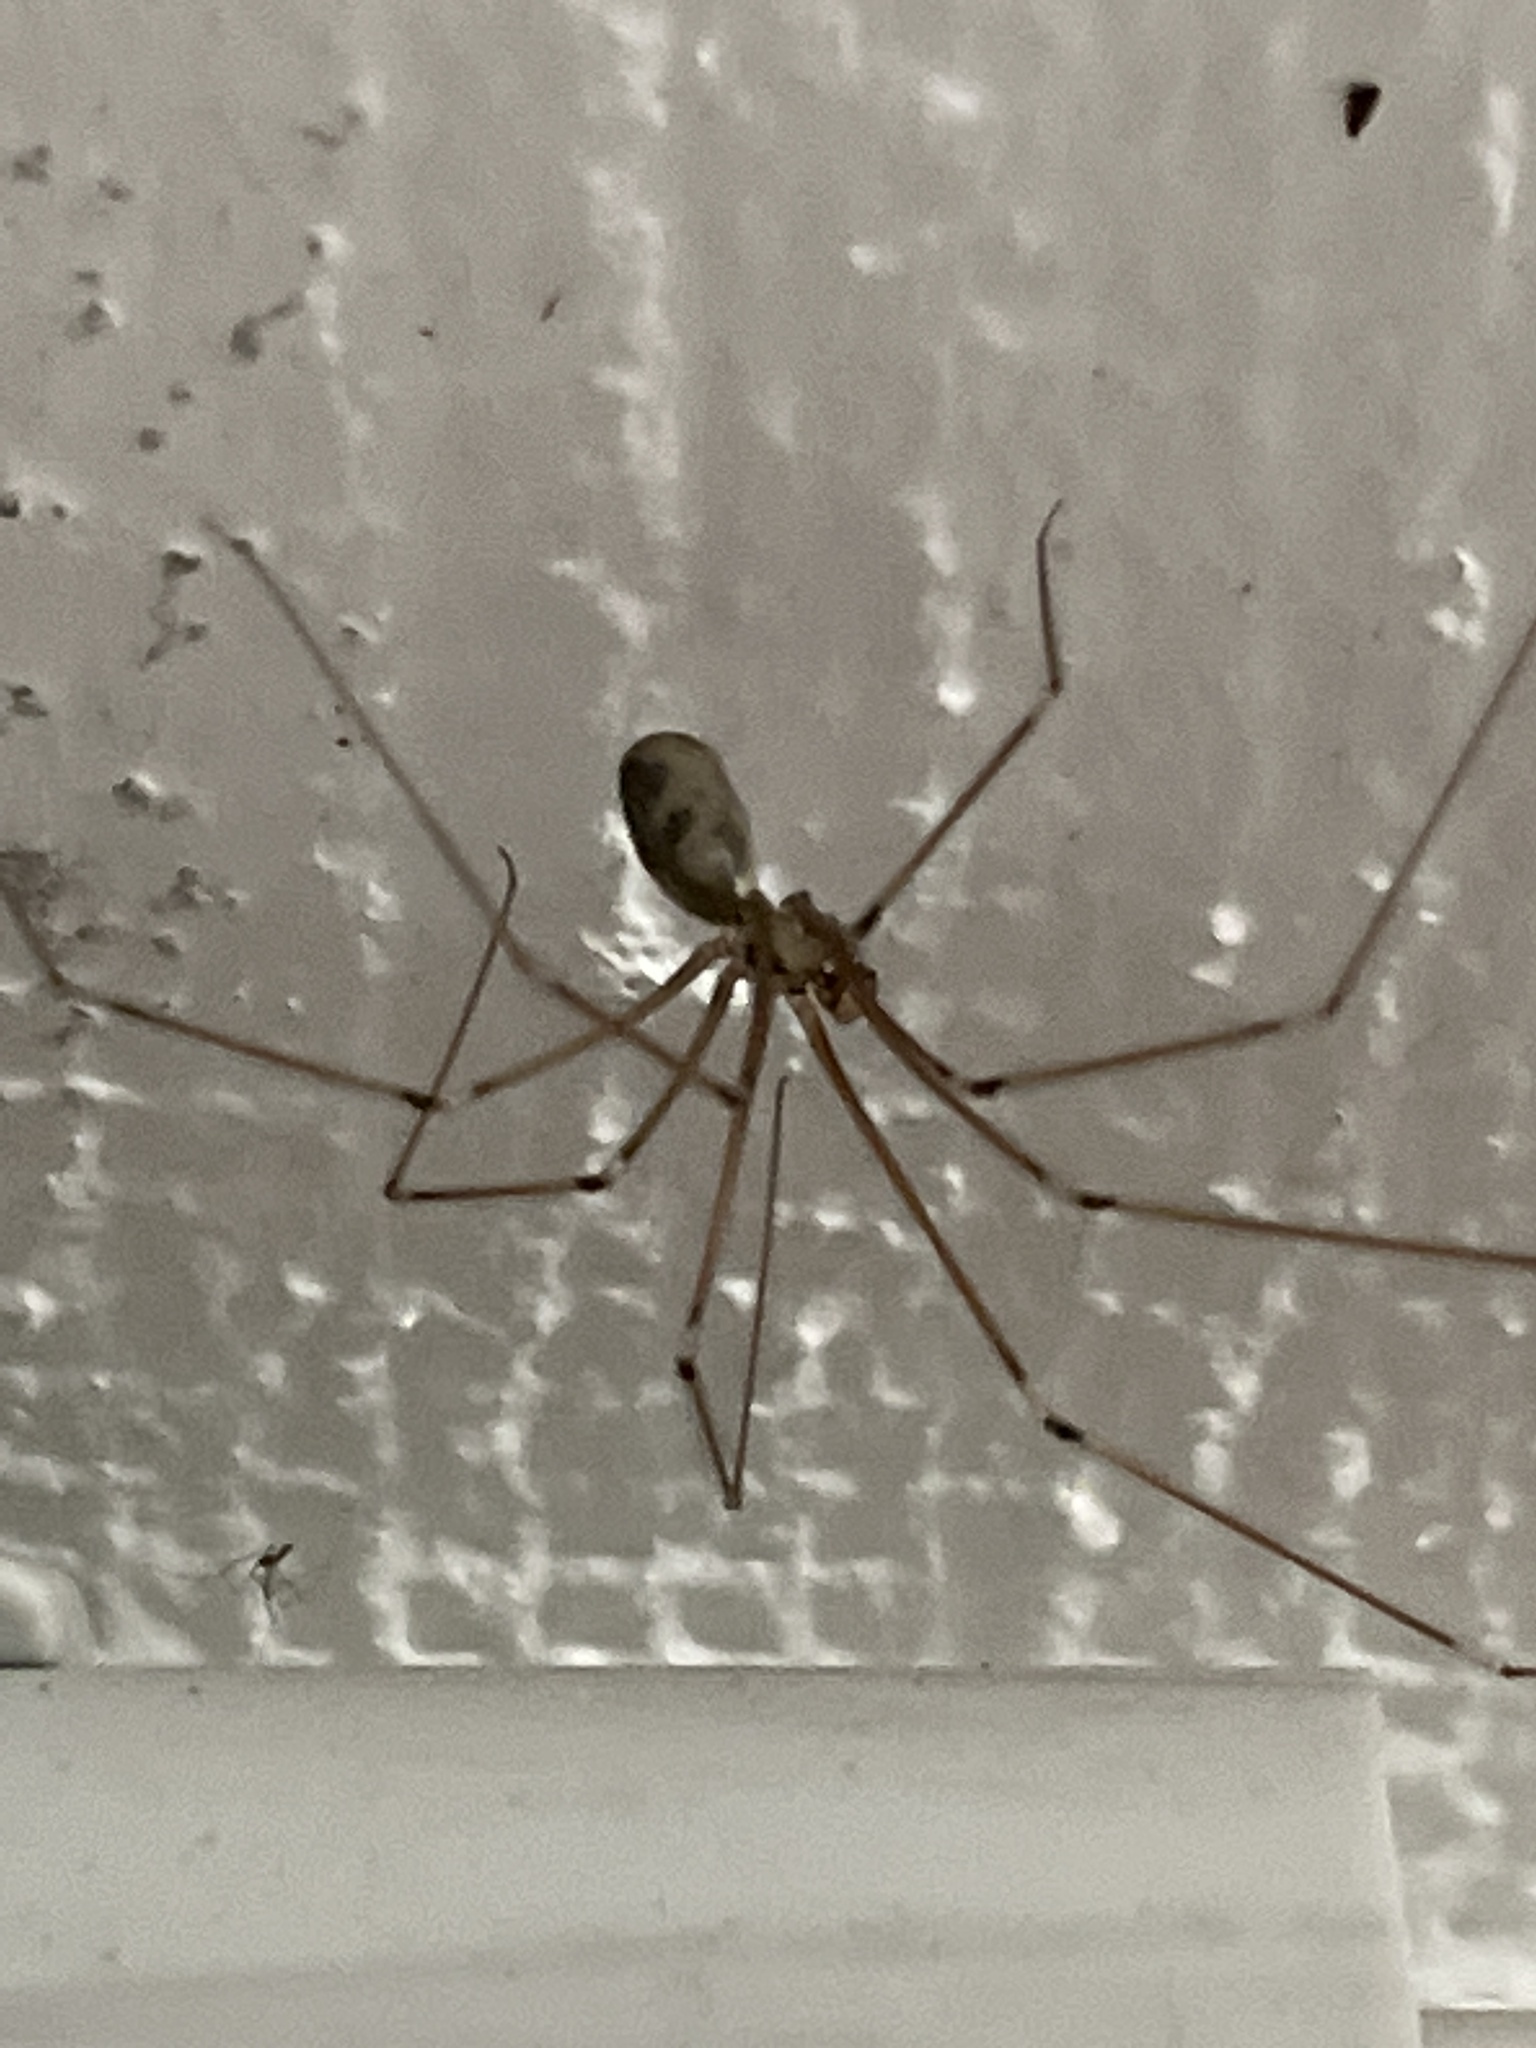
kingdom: Animalia
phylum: Arthropoda
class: Arachnida
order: Araneae
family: Pholcidae
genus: Pholcus
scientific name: Pholcus phalangioides
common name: Longbodied cellar spider
